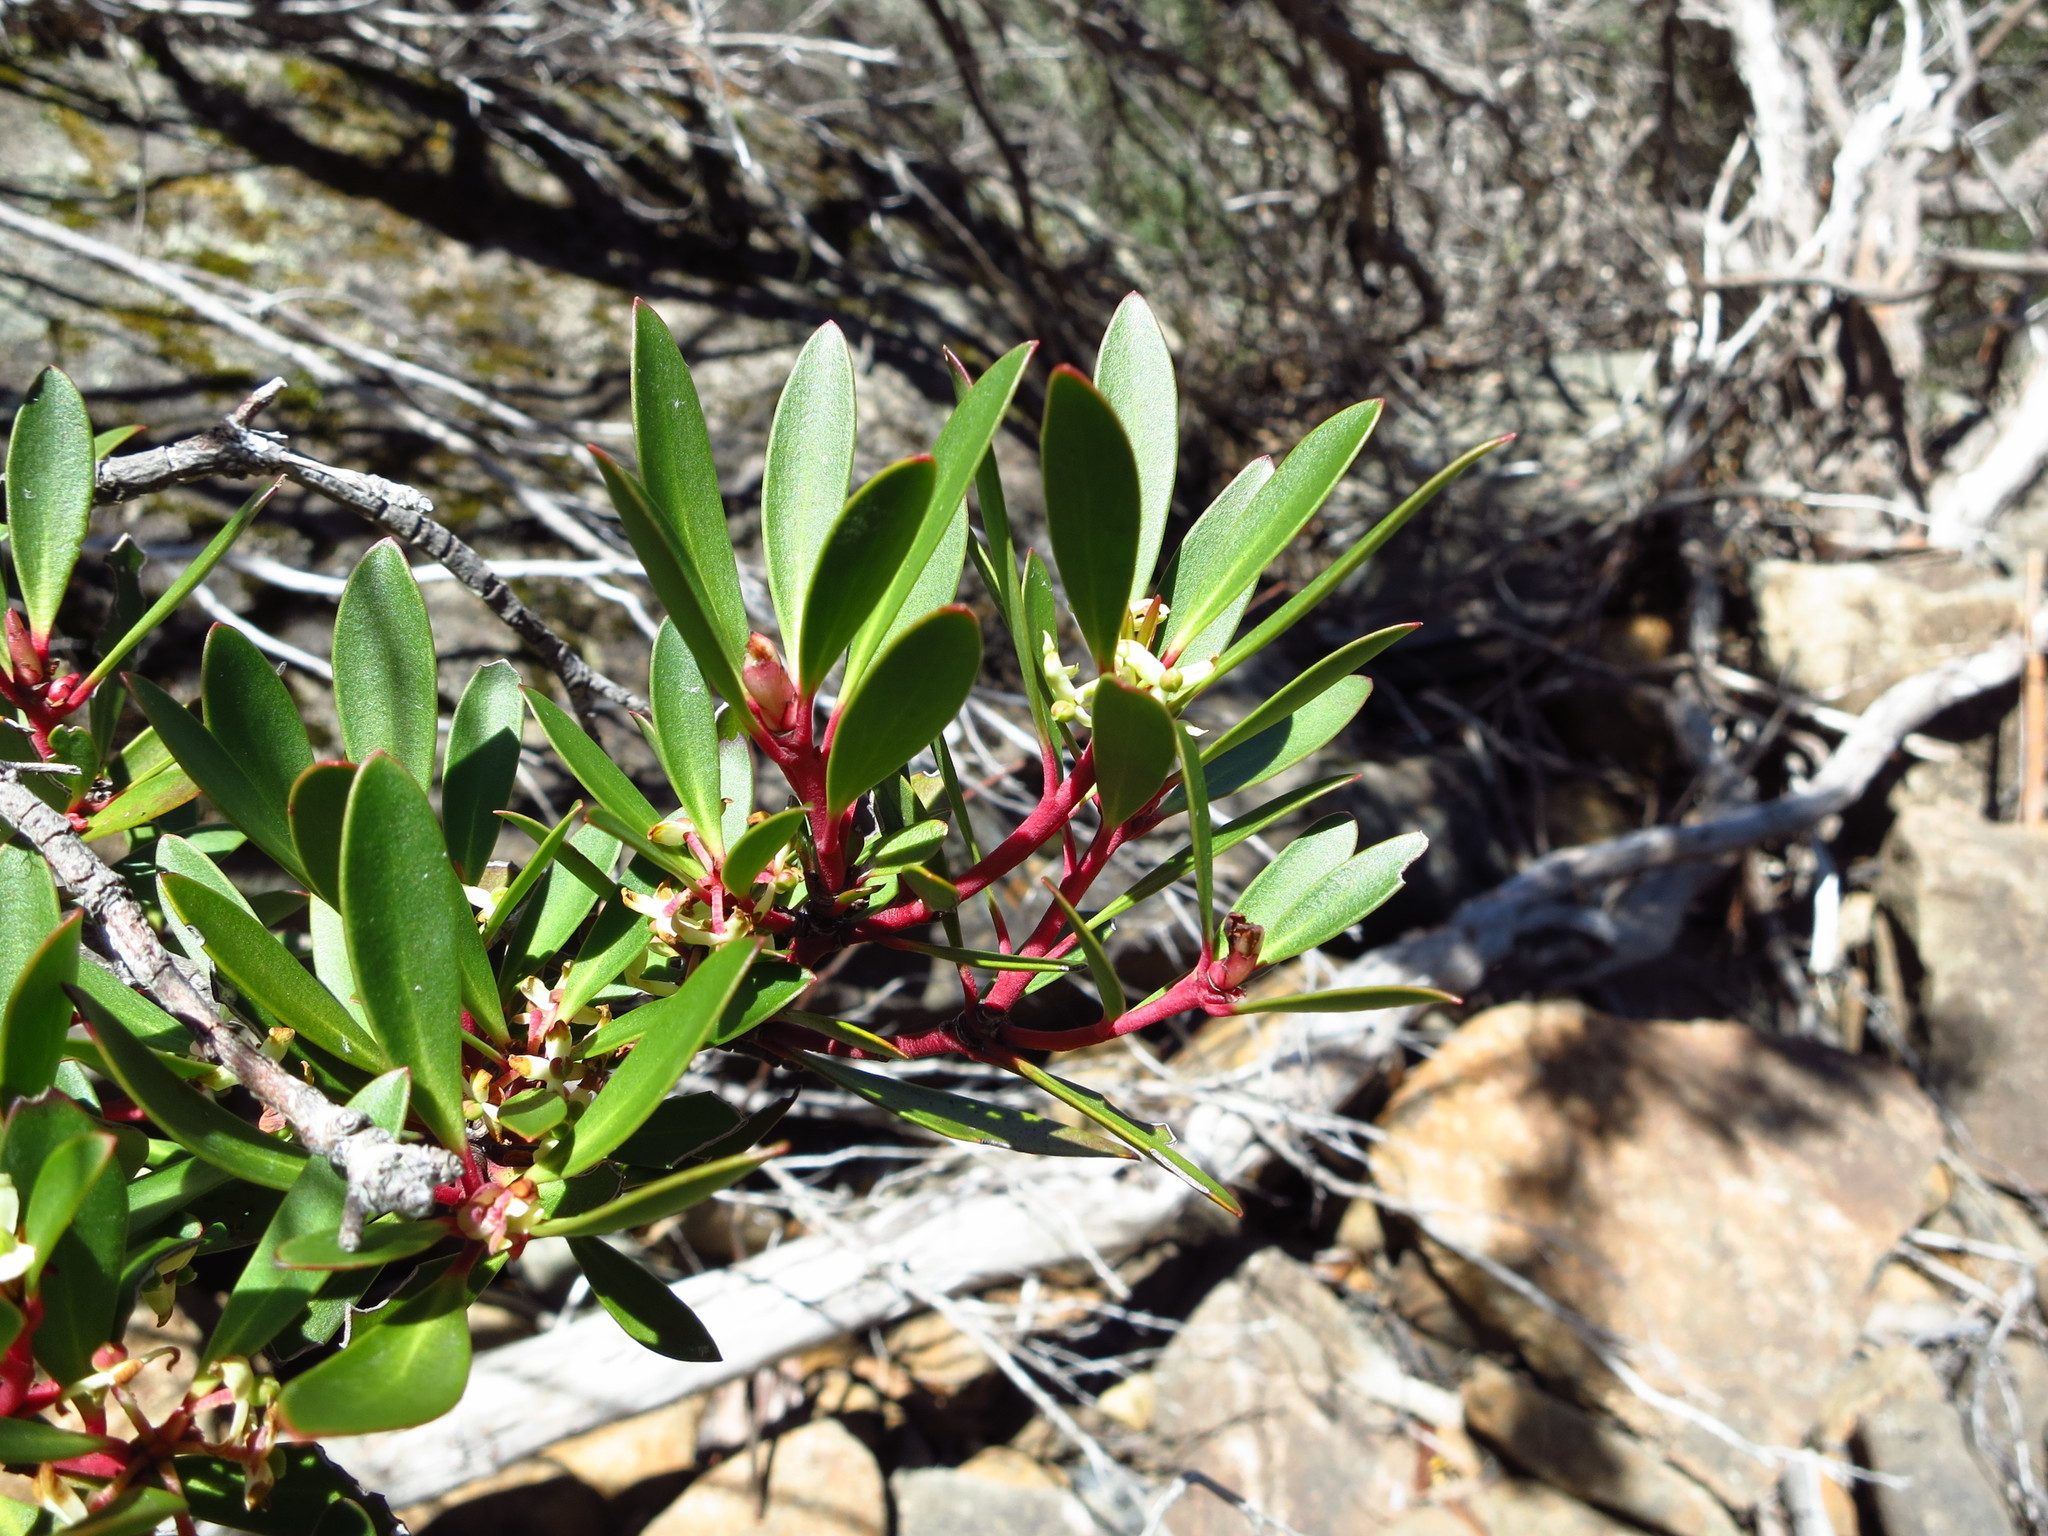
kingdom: Plantae
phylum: Tracheophyta
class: Magnoliopsida
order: Canellales
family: Winteraceae
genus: Drimys
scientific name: Drimys aromatica
